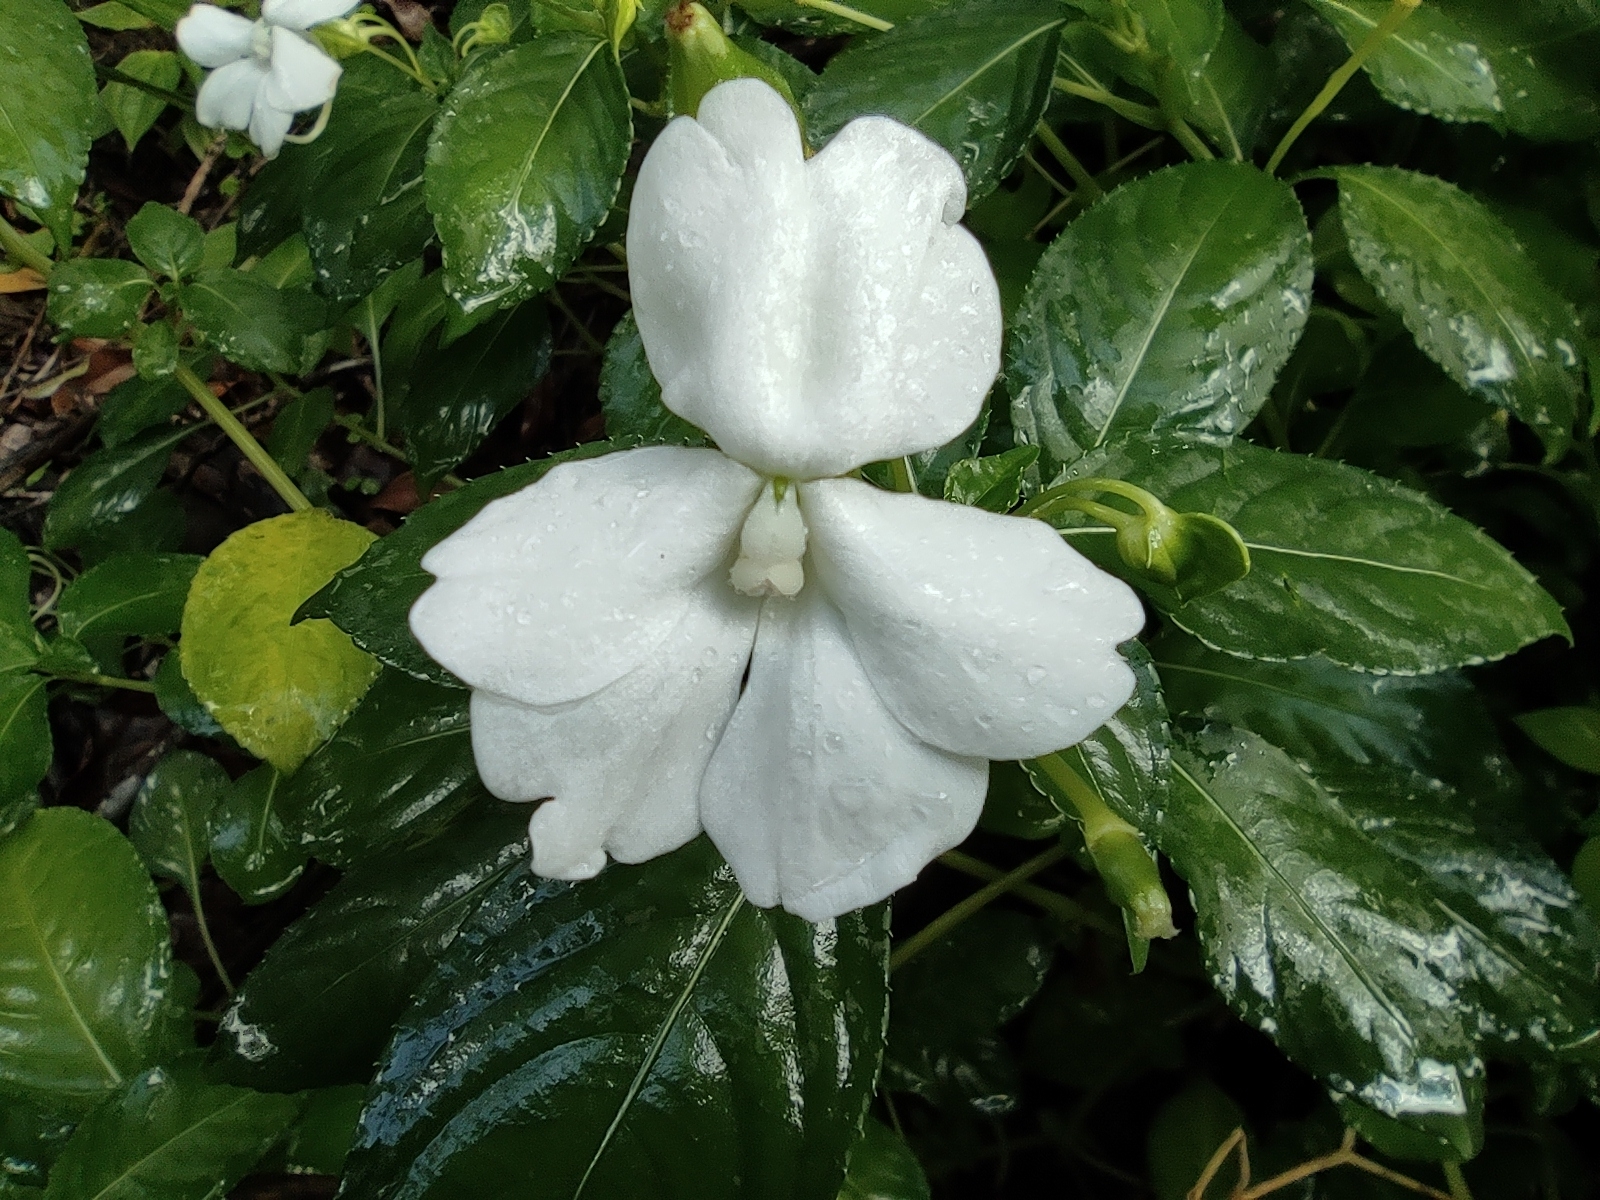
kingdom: Plantae
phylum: Tracheophyta
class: Magnoliopsida
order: Ericales
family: Balsaminaceae
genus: Impatiens
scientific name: Impatiens flaccida
